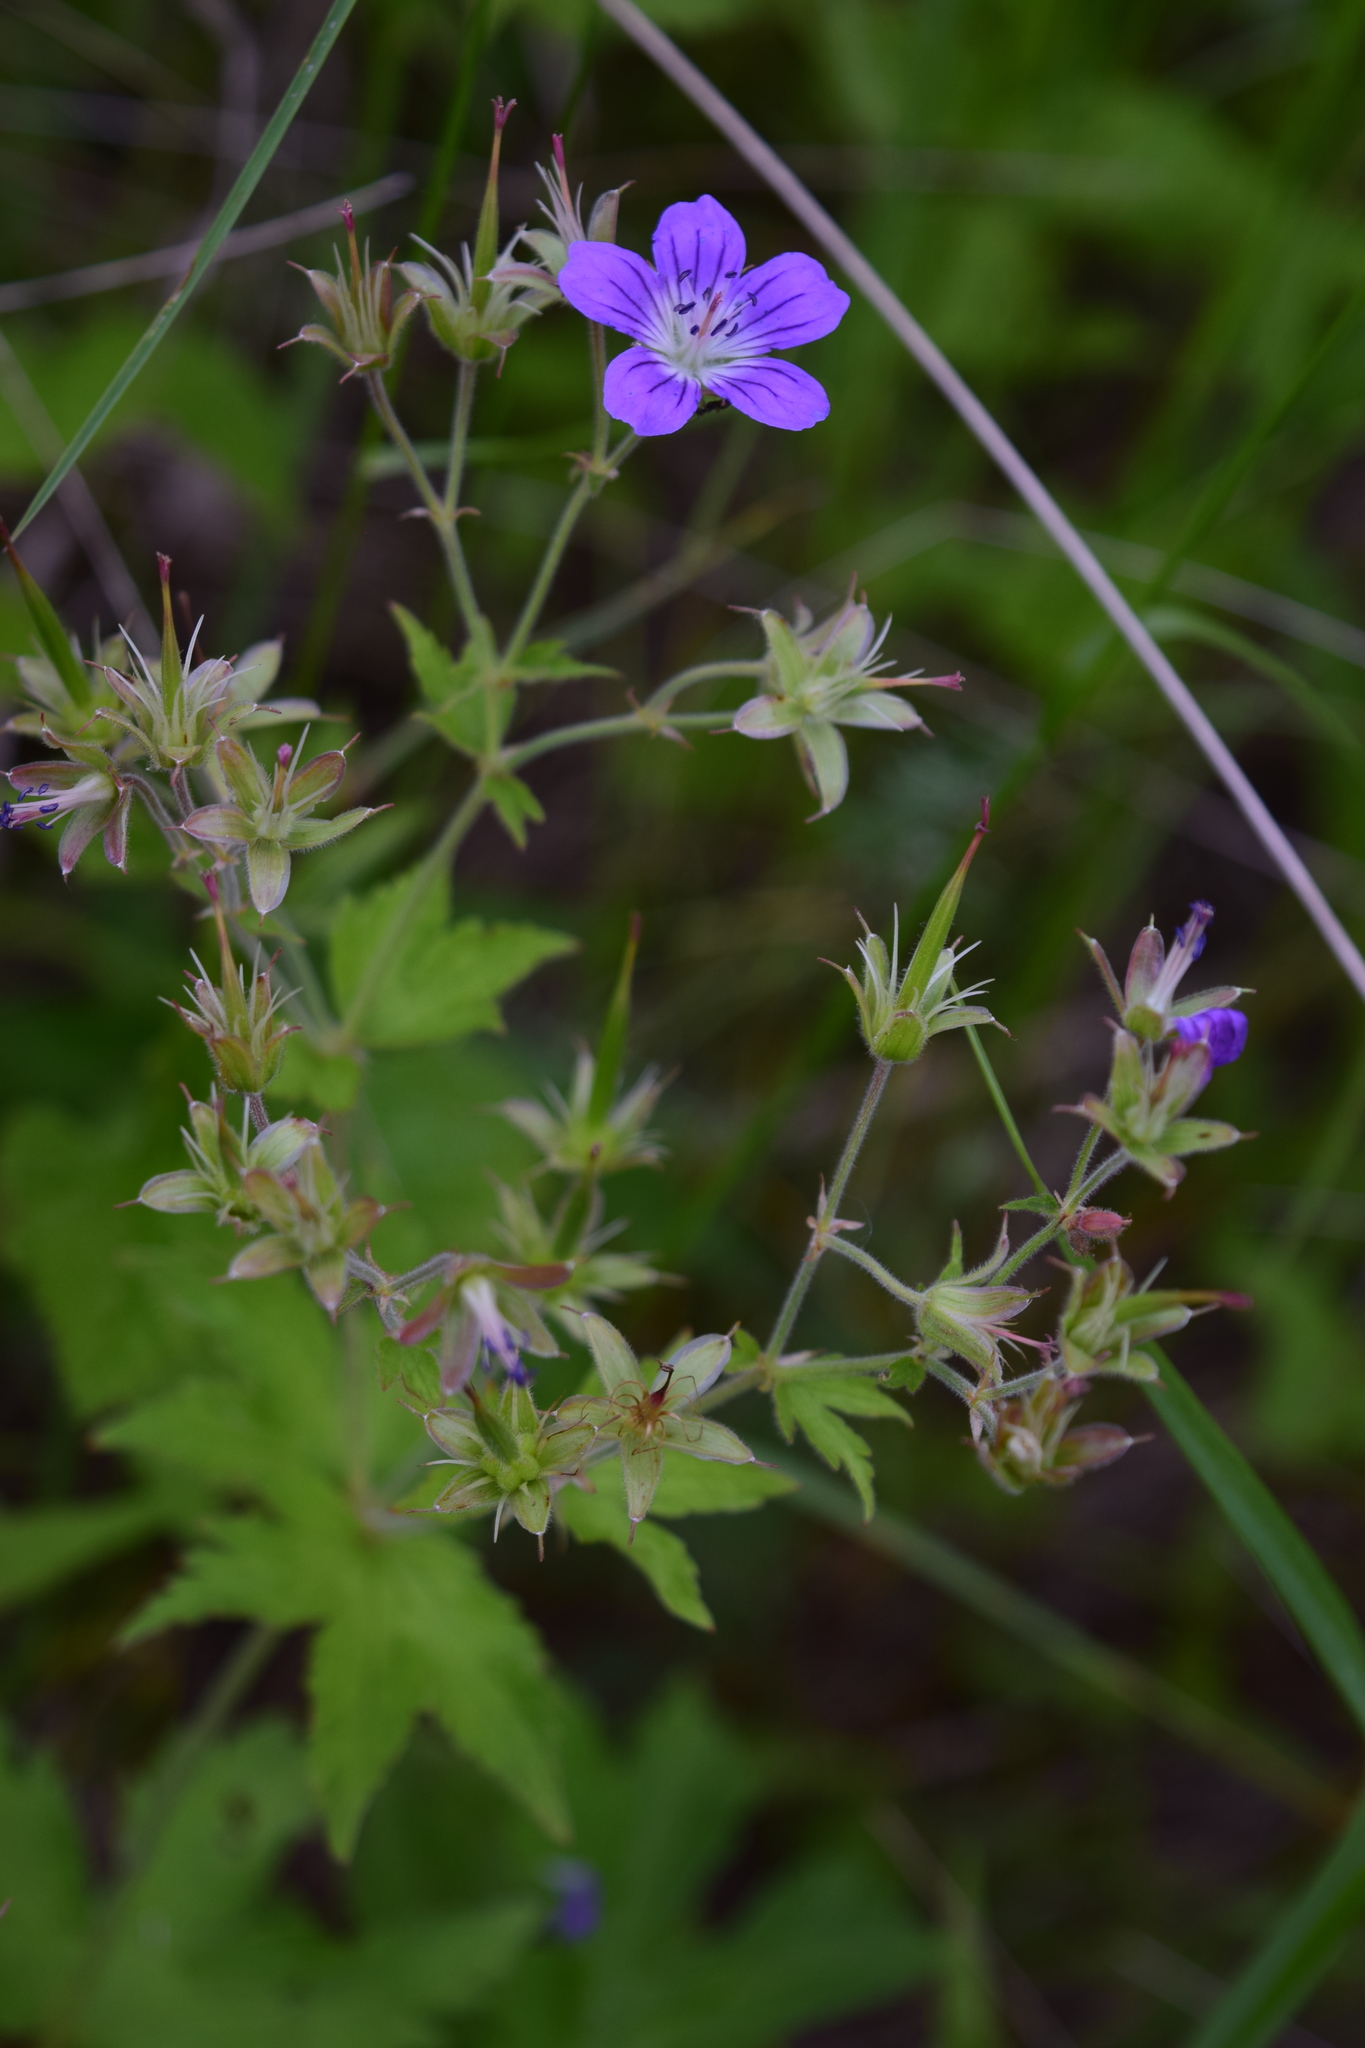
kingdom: Plantae
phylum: Tracheophyta
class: Magnoliopsida
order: Geraniales
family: Geraniaceae
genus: Geranium
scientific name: Geranium sylvaticum
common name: Wood crane's-bill
